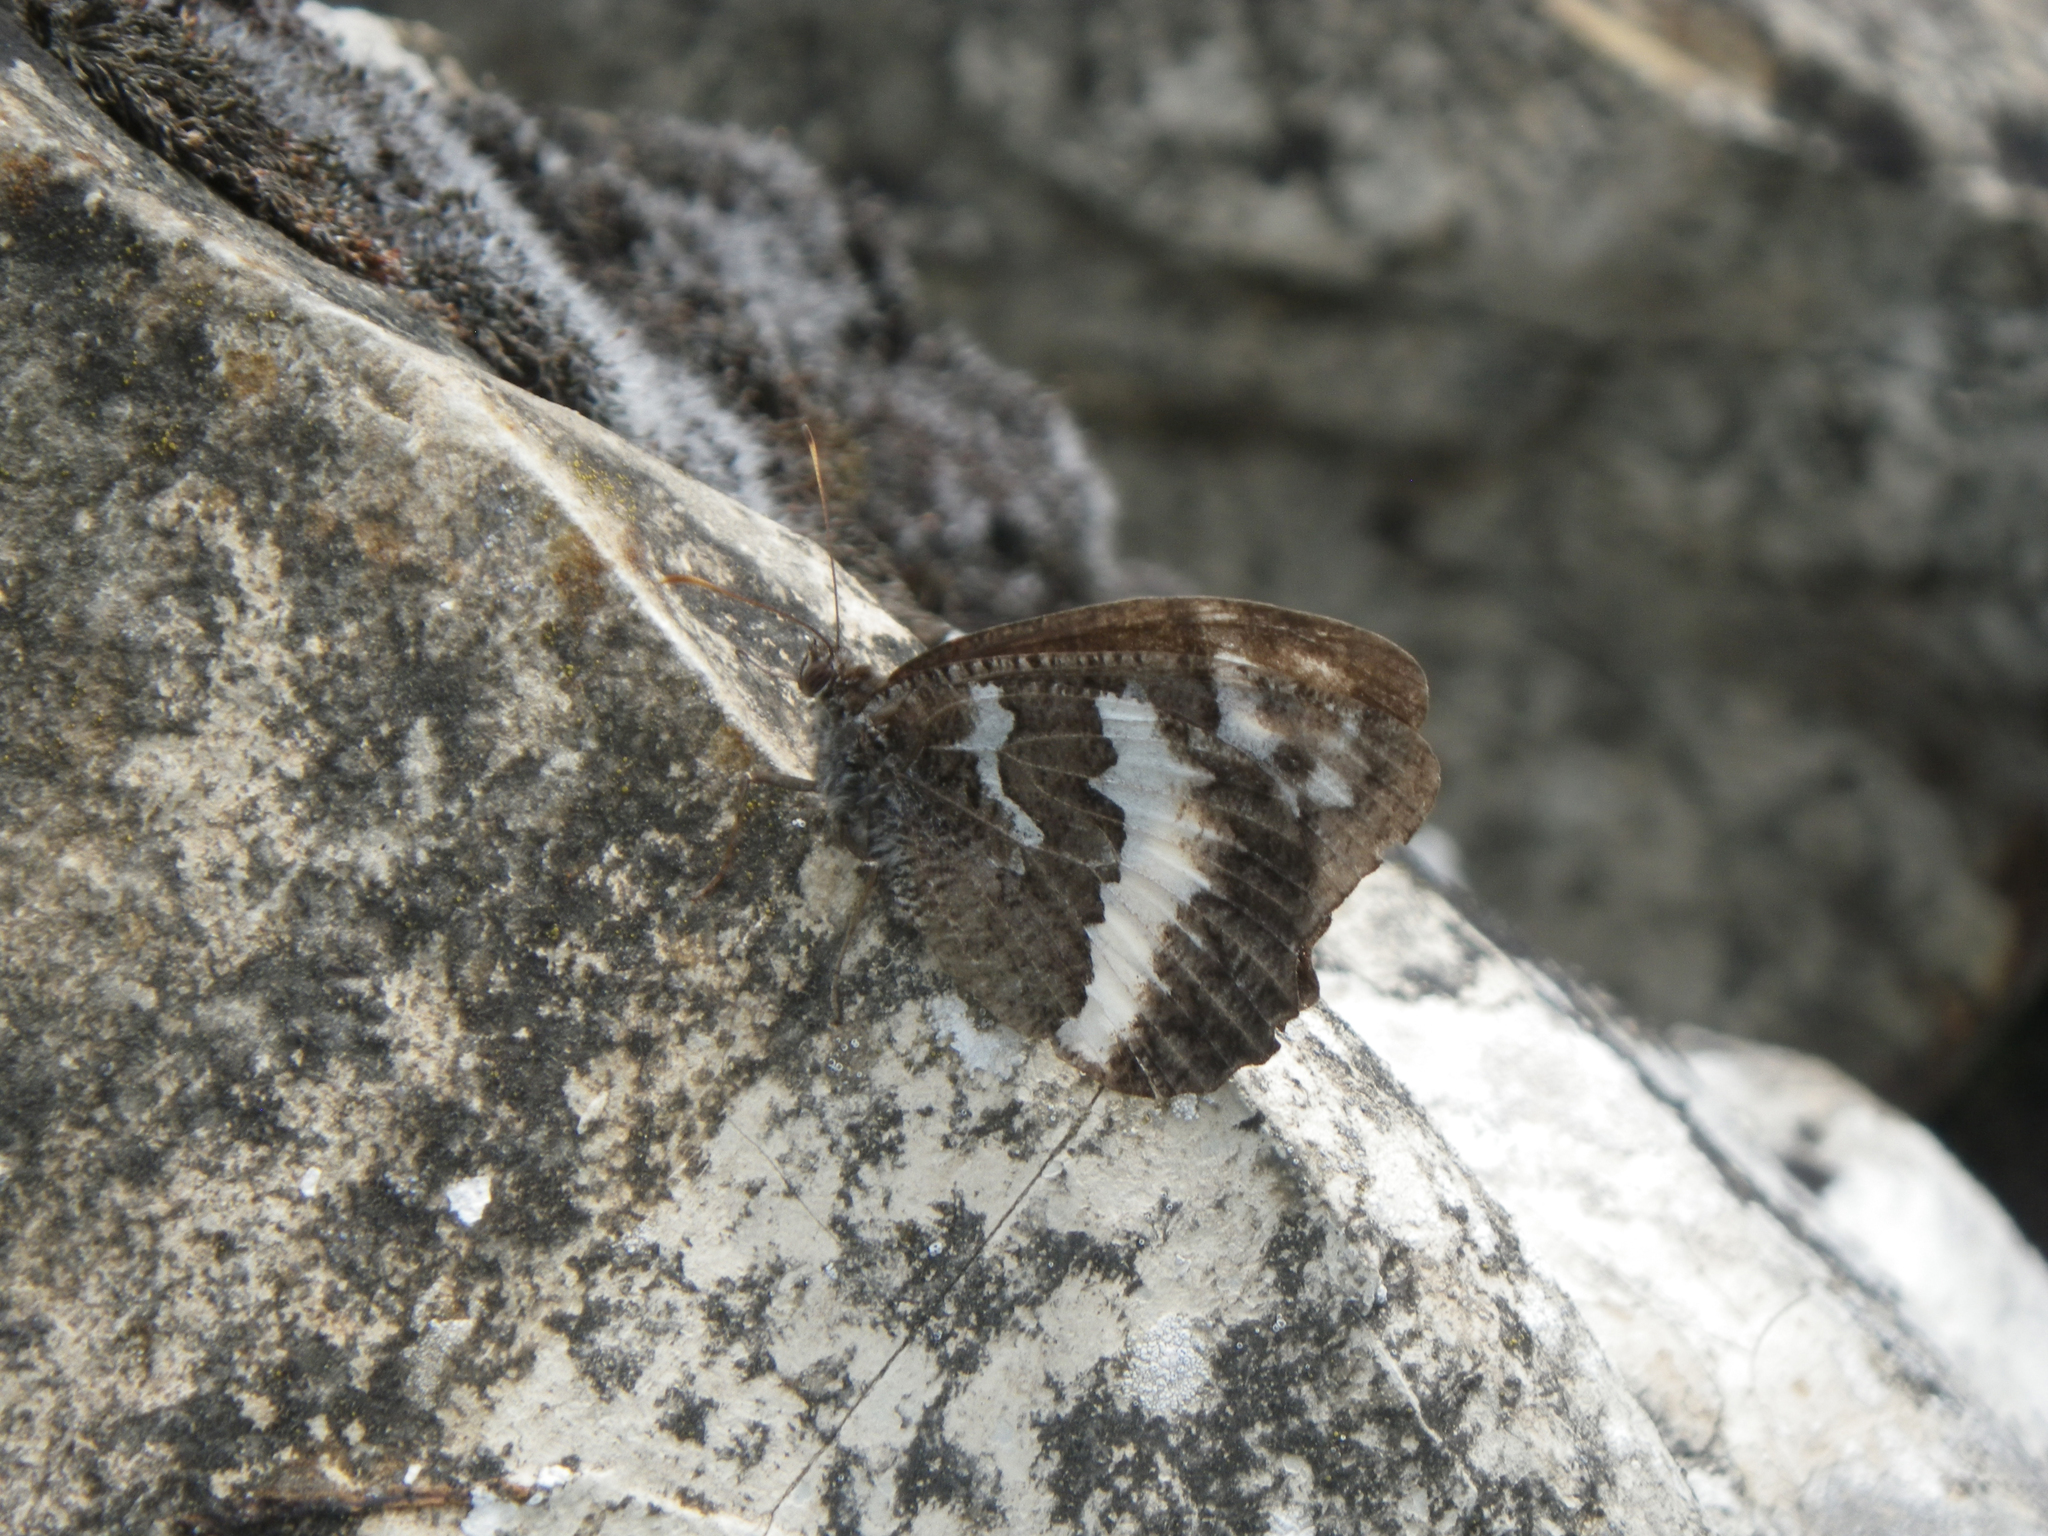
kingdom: Animalia
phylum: Arthropoda
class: Insecta
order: Lepidoptera
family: Lycaenidae
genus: Loweia
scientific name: Loweia tityrus
